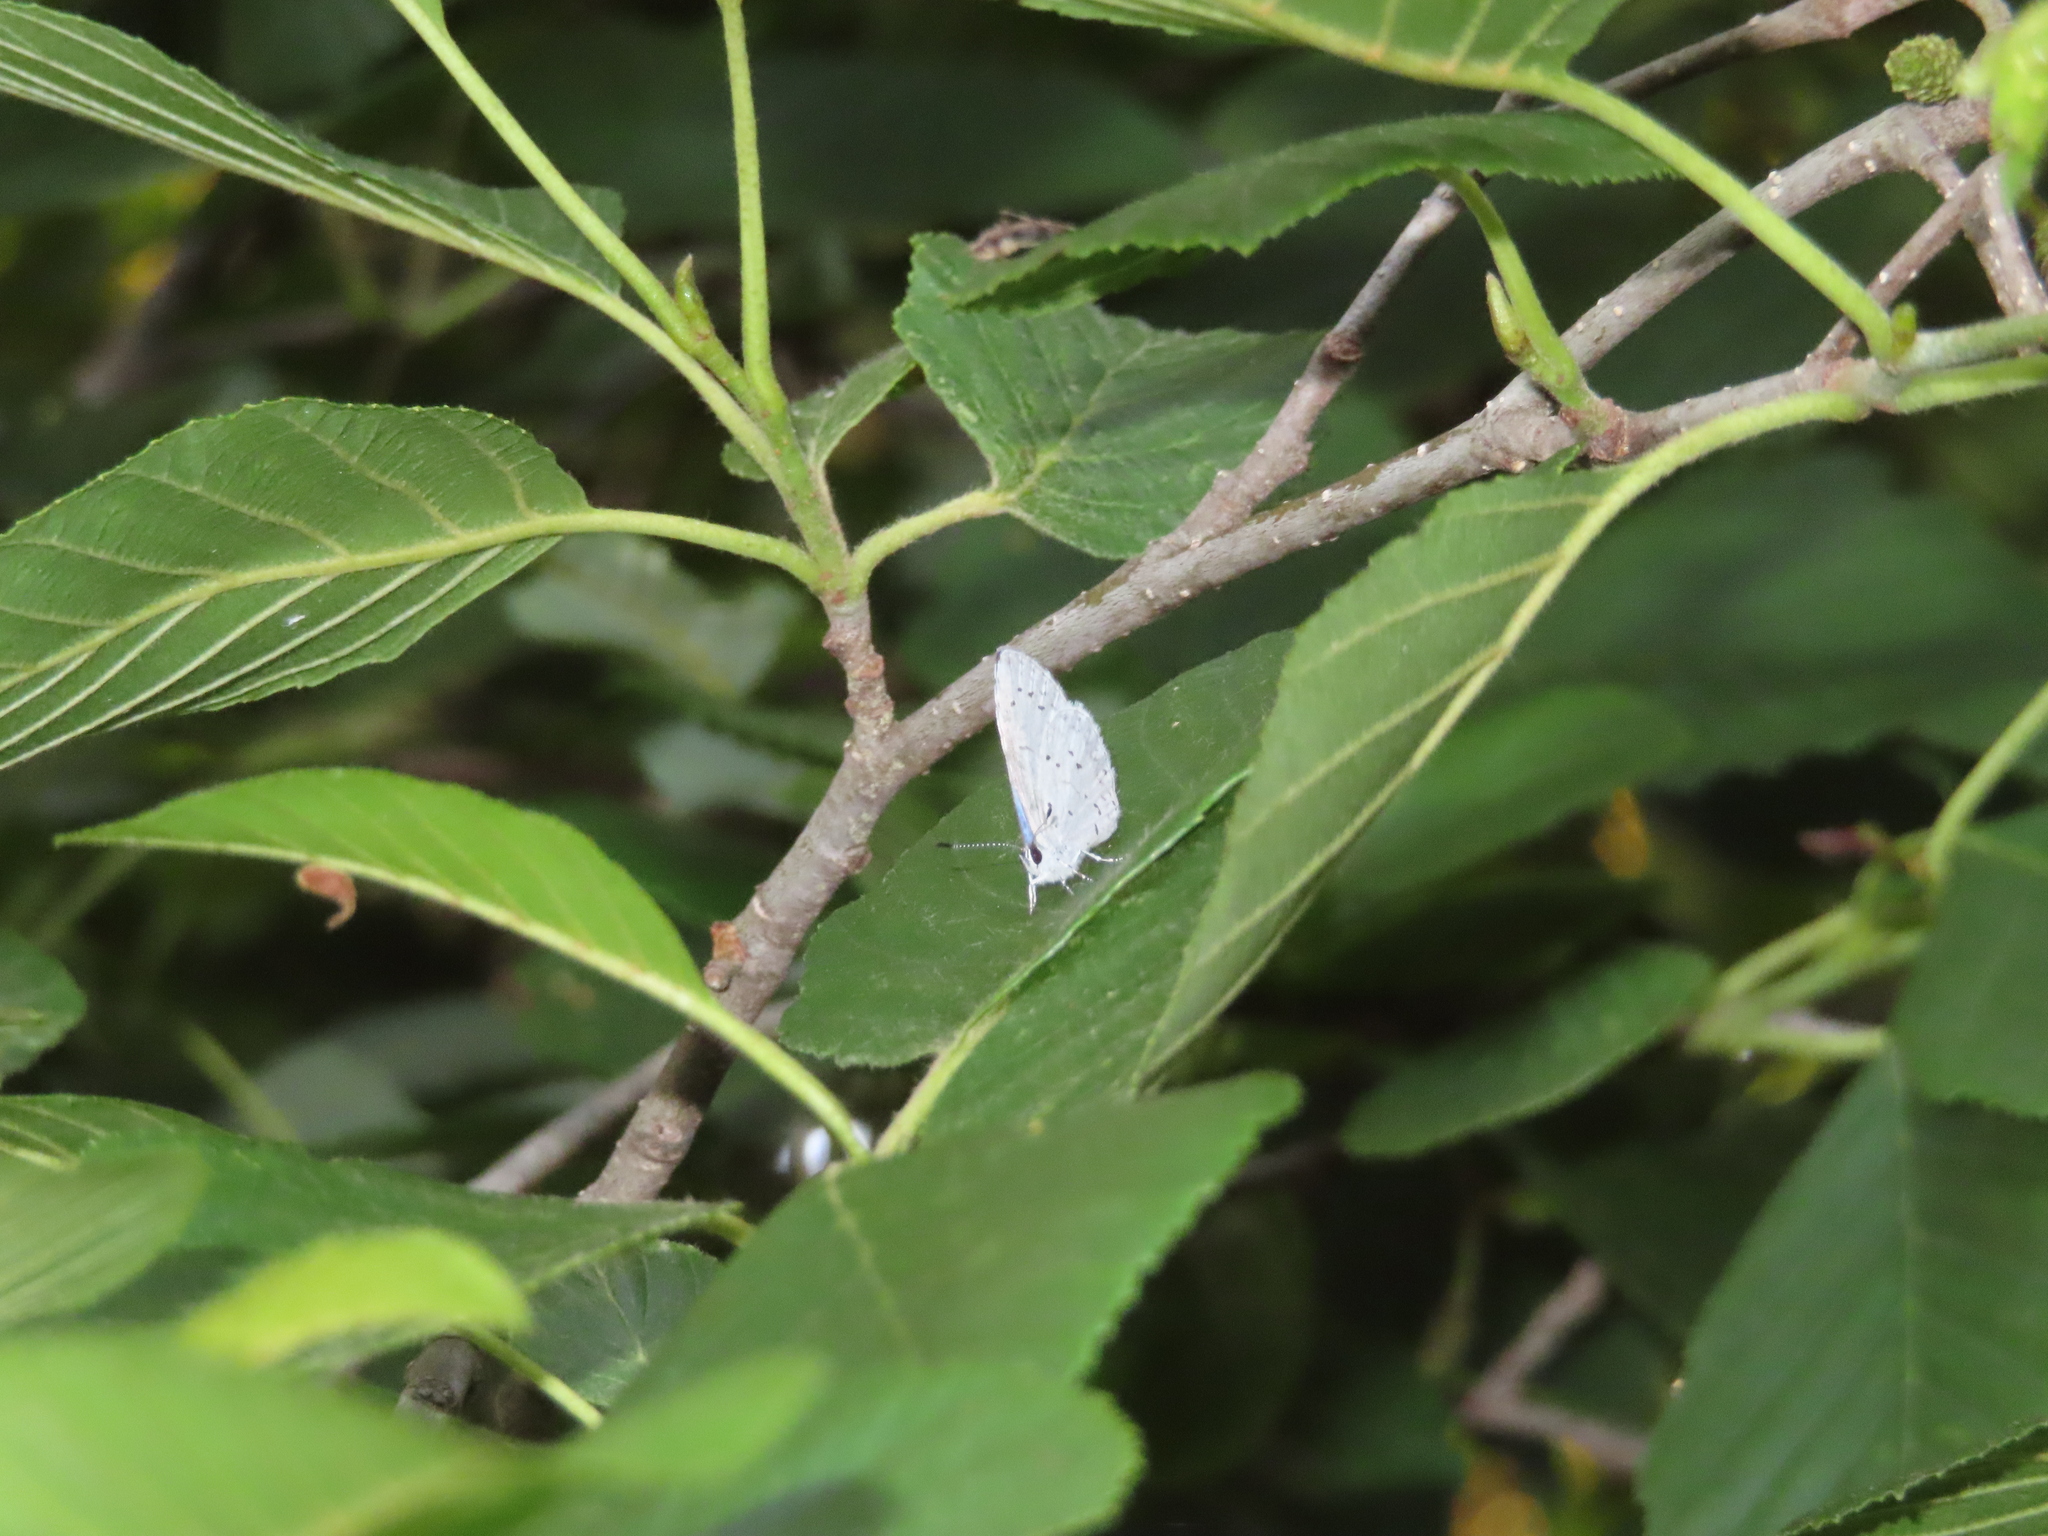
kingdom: Animalia
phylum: Arthropoda
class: Insecta
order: Lepidoptera
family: Lycaenidae
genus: Cyaniris
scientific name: Cyaniris neglecta
